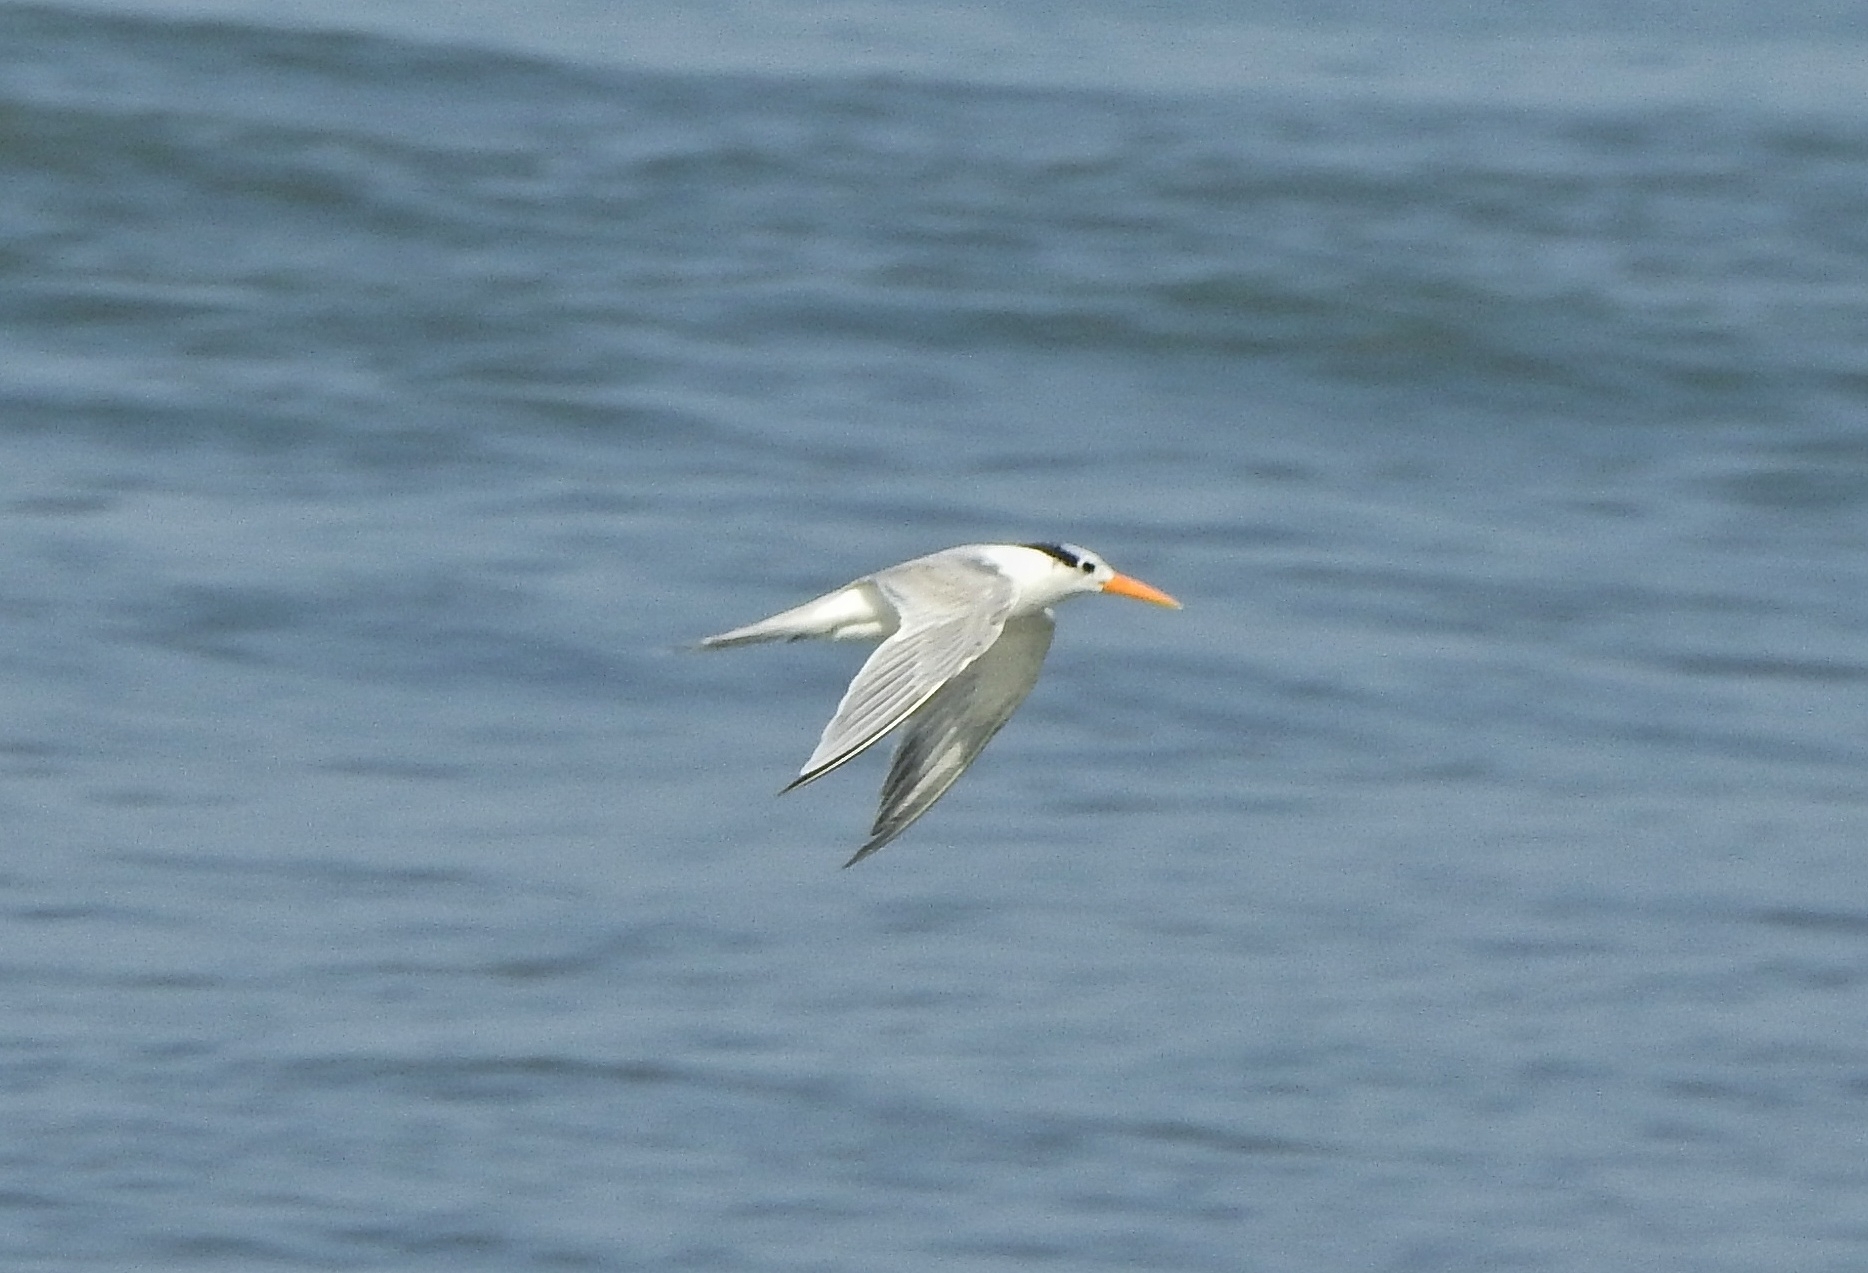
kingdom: Animalia
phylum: Chordata
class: Aves
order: Charadriiformes
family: Laridae
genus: Thalasseus
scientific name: Thalasseus bengalensis
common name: Lesser crested tern
